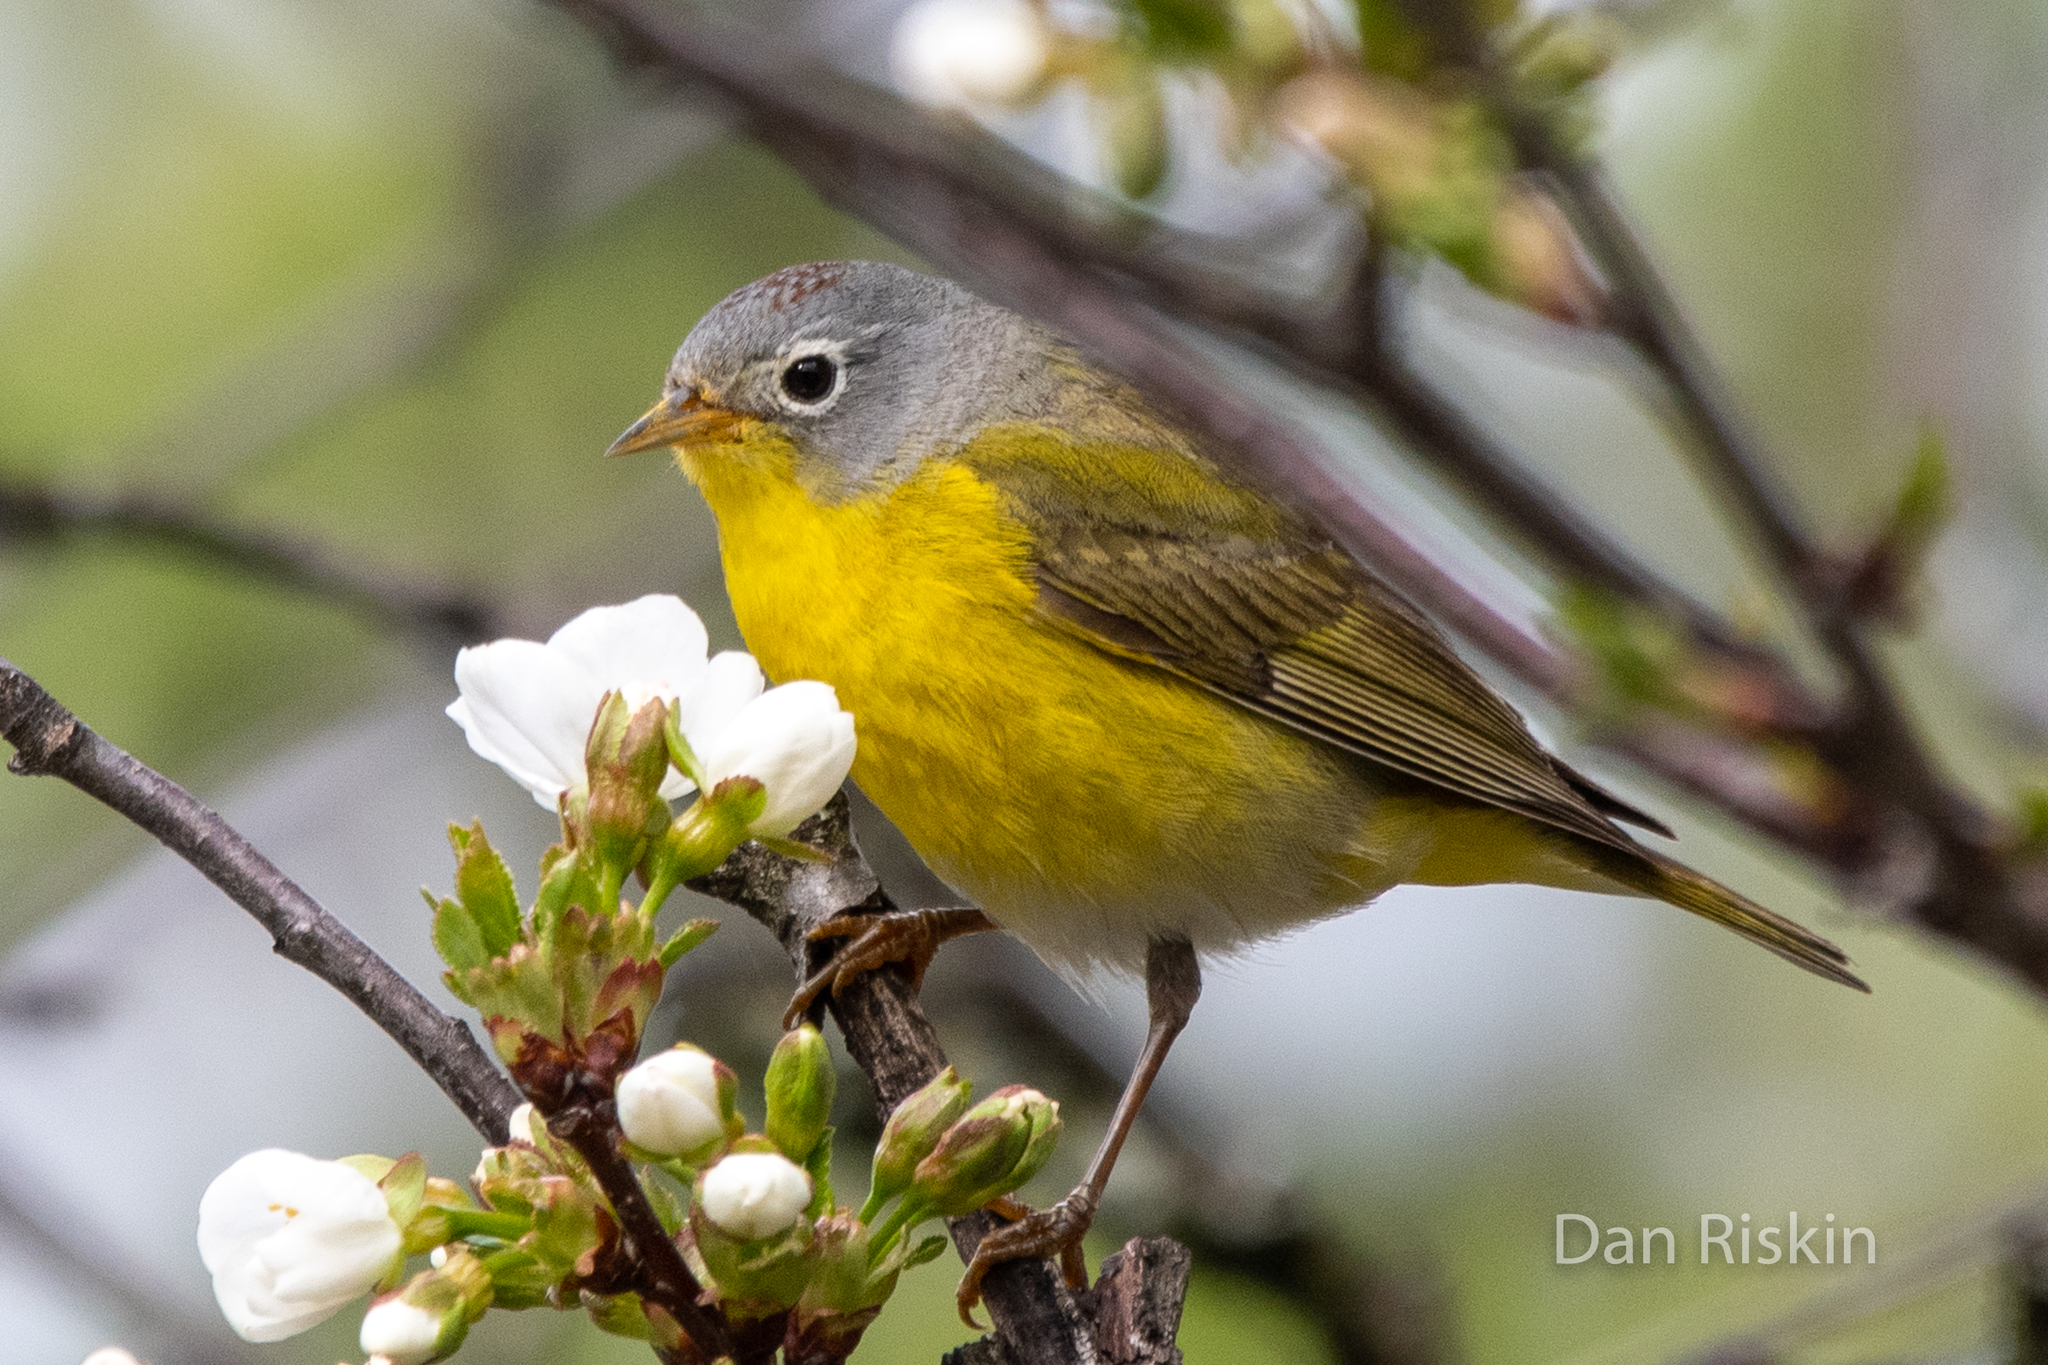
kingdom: Animalia
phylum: Chordata
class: Aves
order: Passeriformes
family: Parulidae
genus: Leiothlypis
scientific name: Leiothlypis ruficapilla
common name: Nashville warbler
